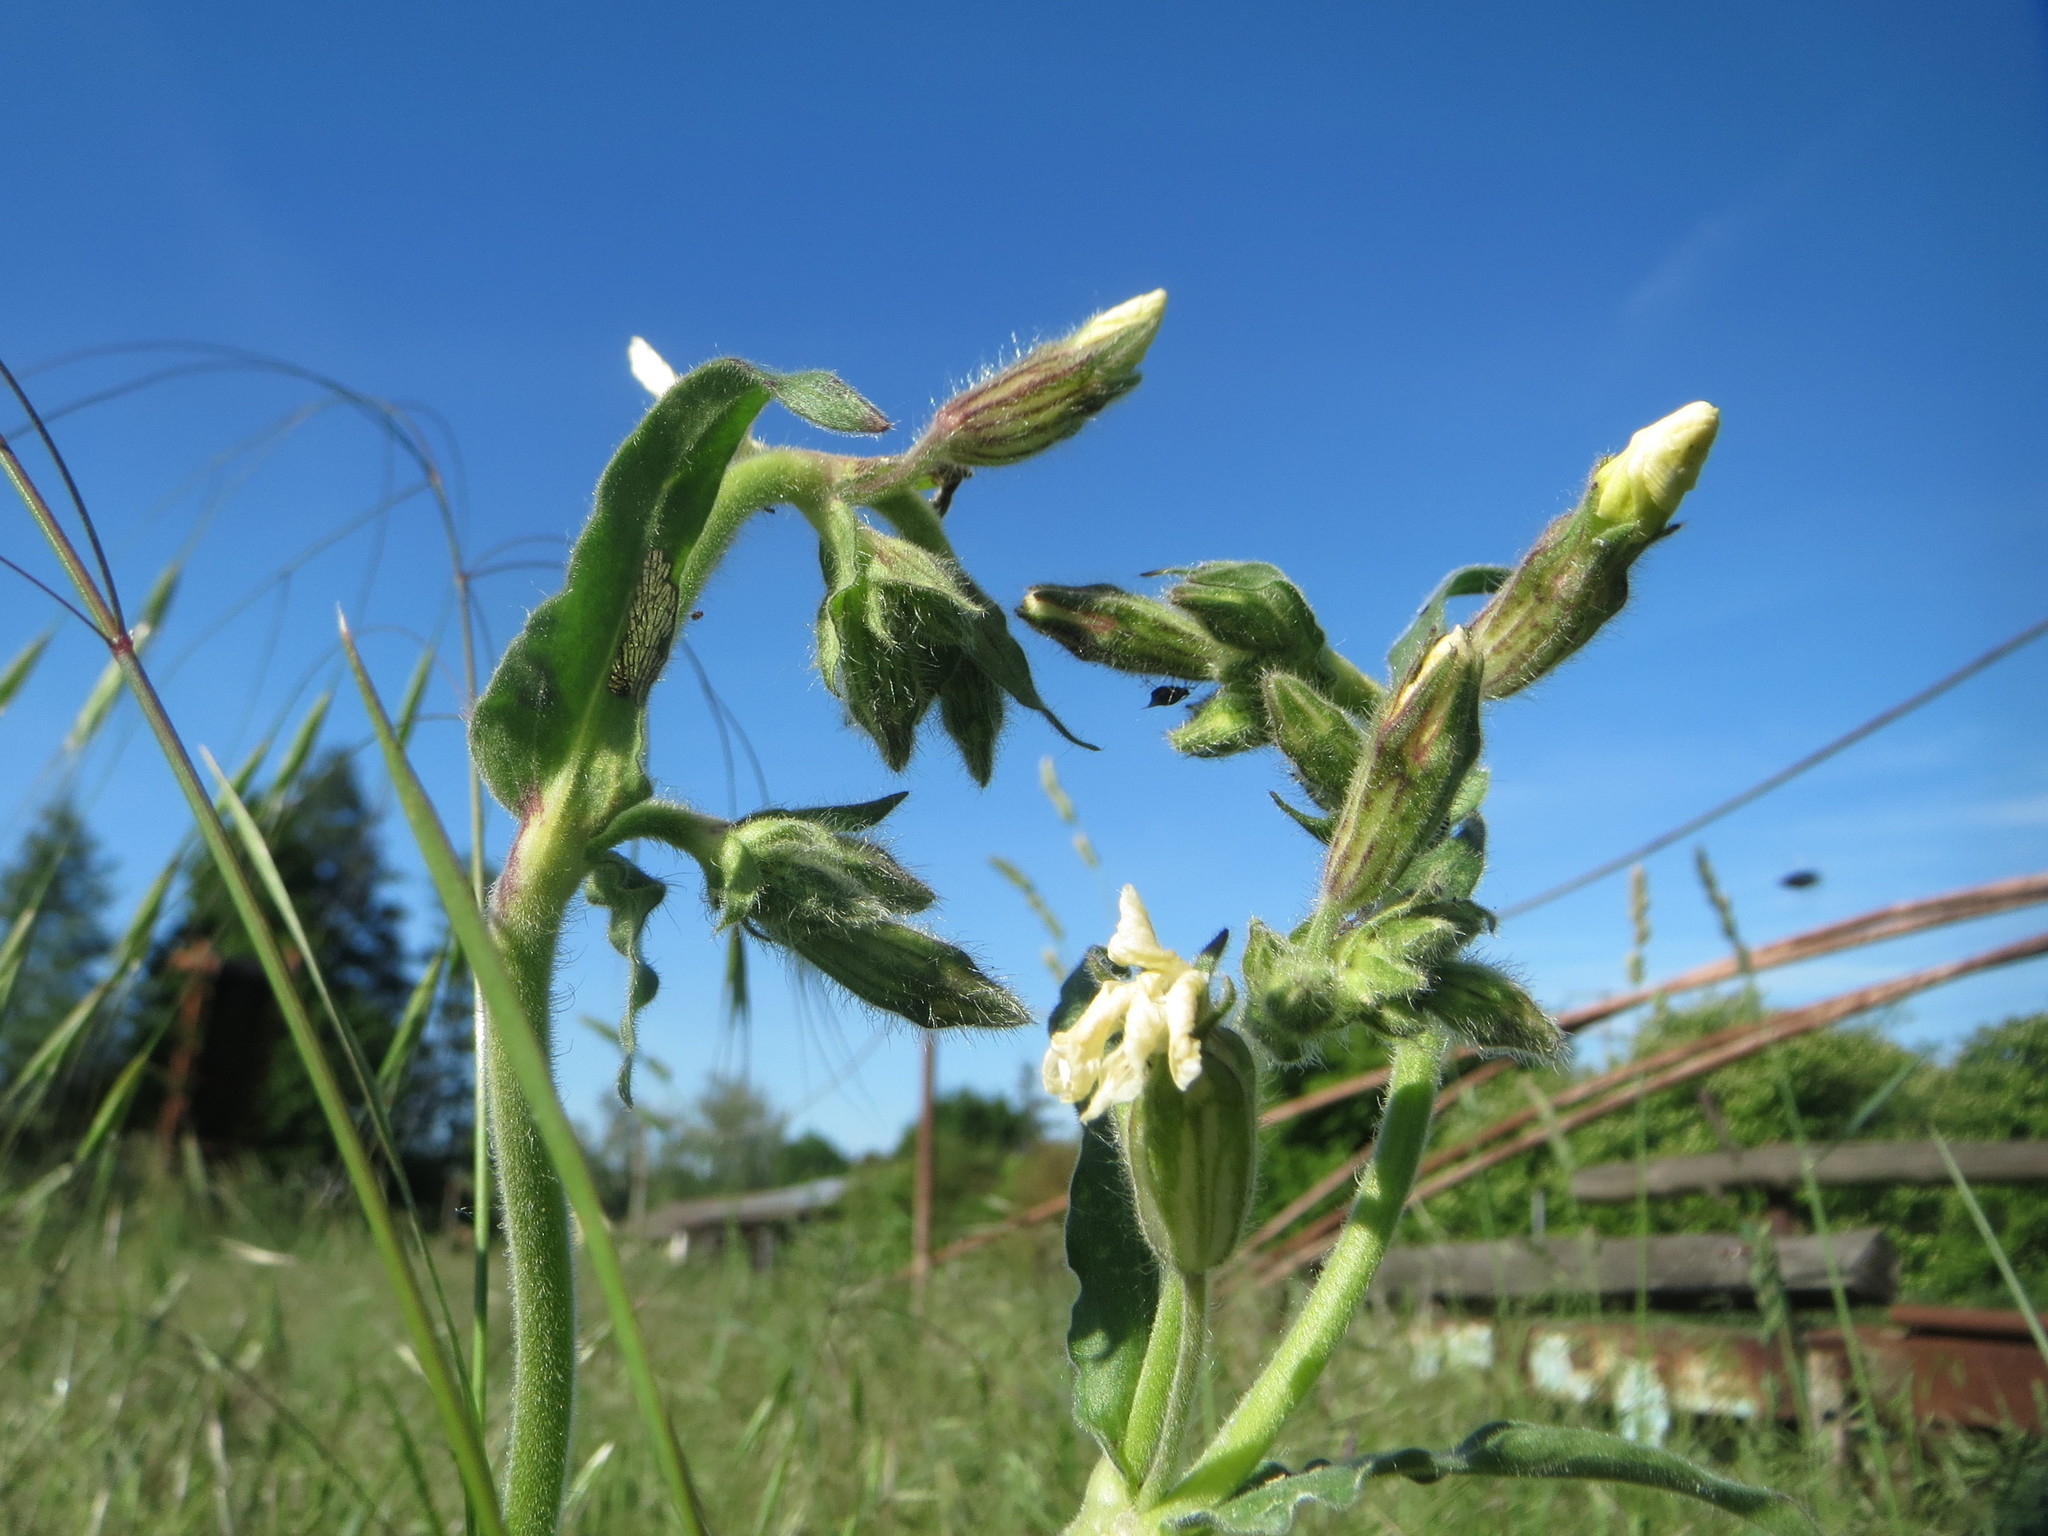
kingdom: Plantae
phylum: Tracheophyta
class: Magnoliopsida
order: Caryophyllales
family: Caryophyllaceae
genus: Silene
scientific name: Silene latifolia
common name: White campion
